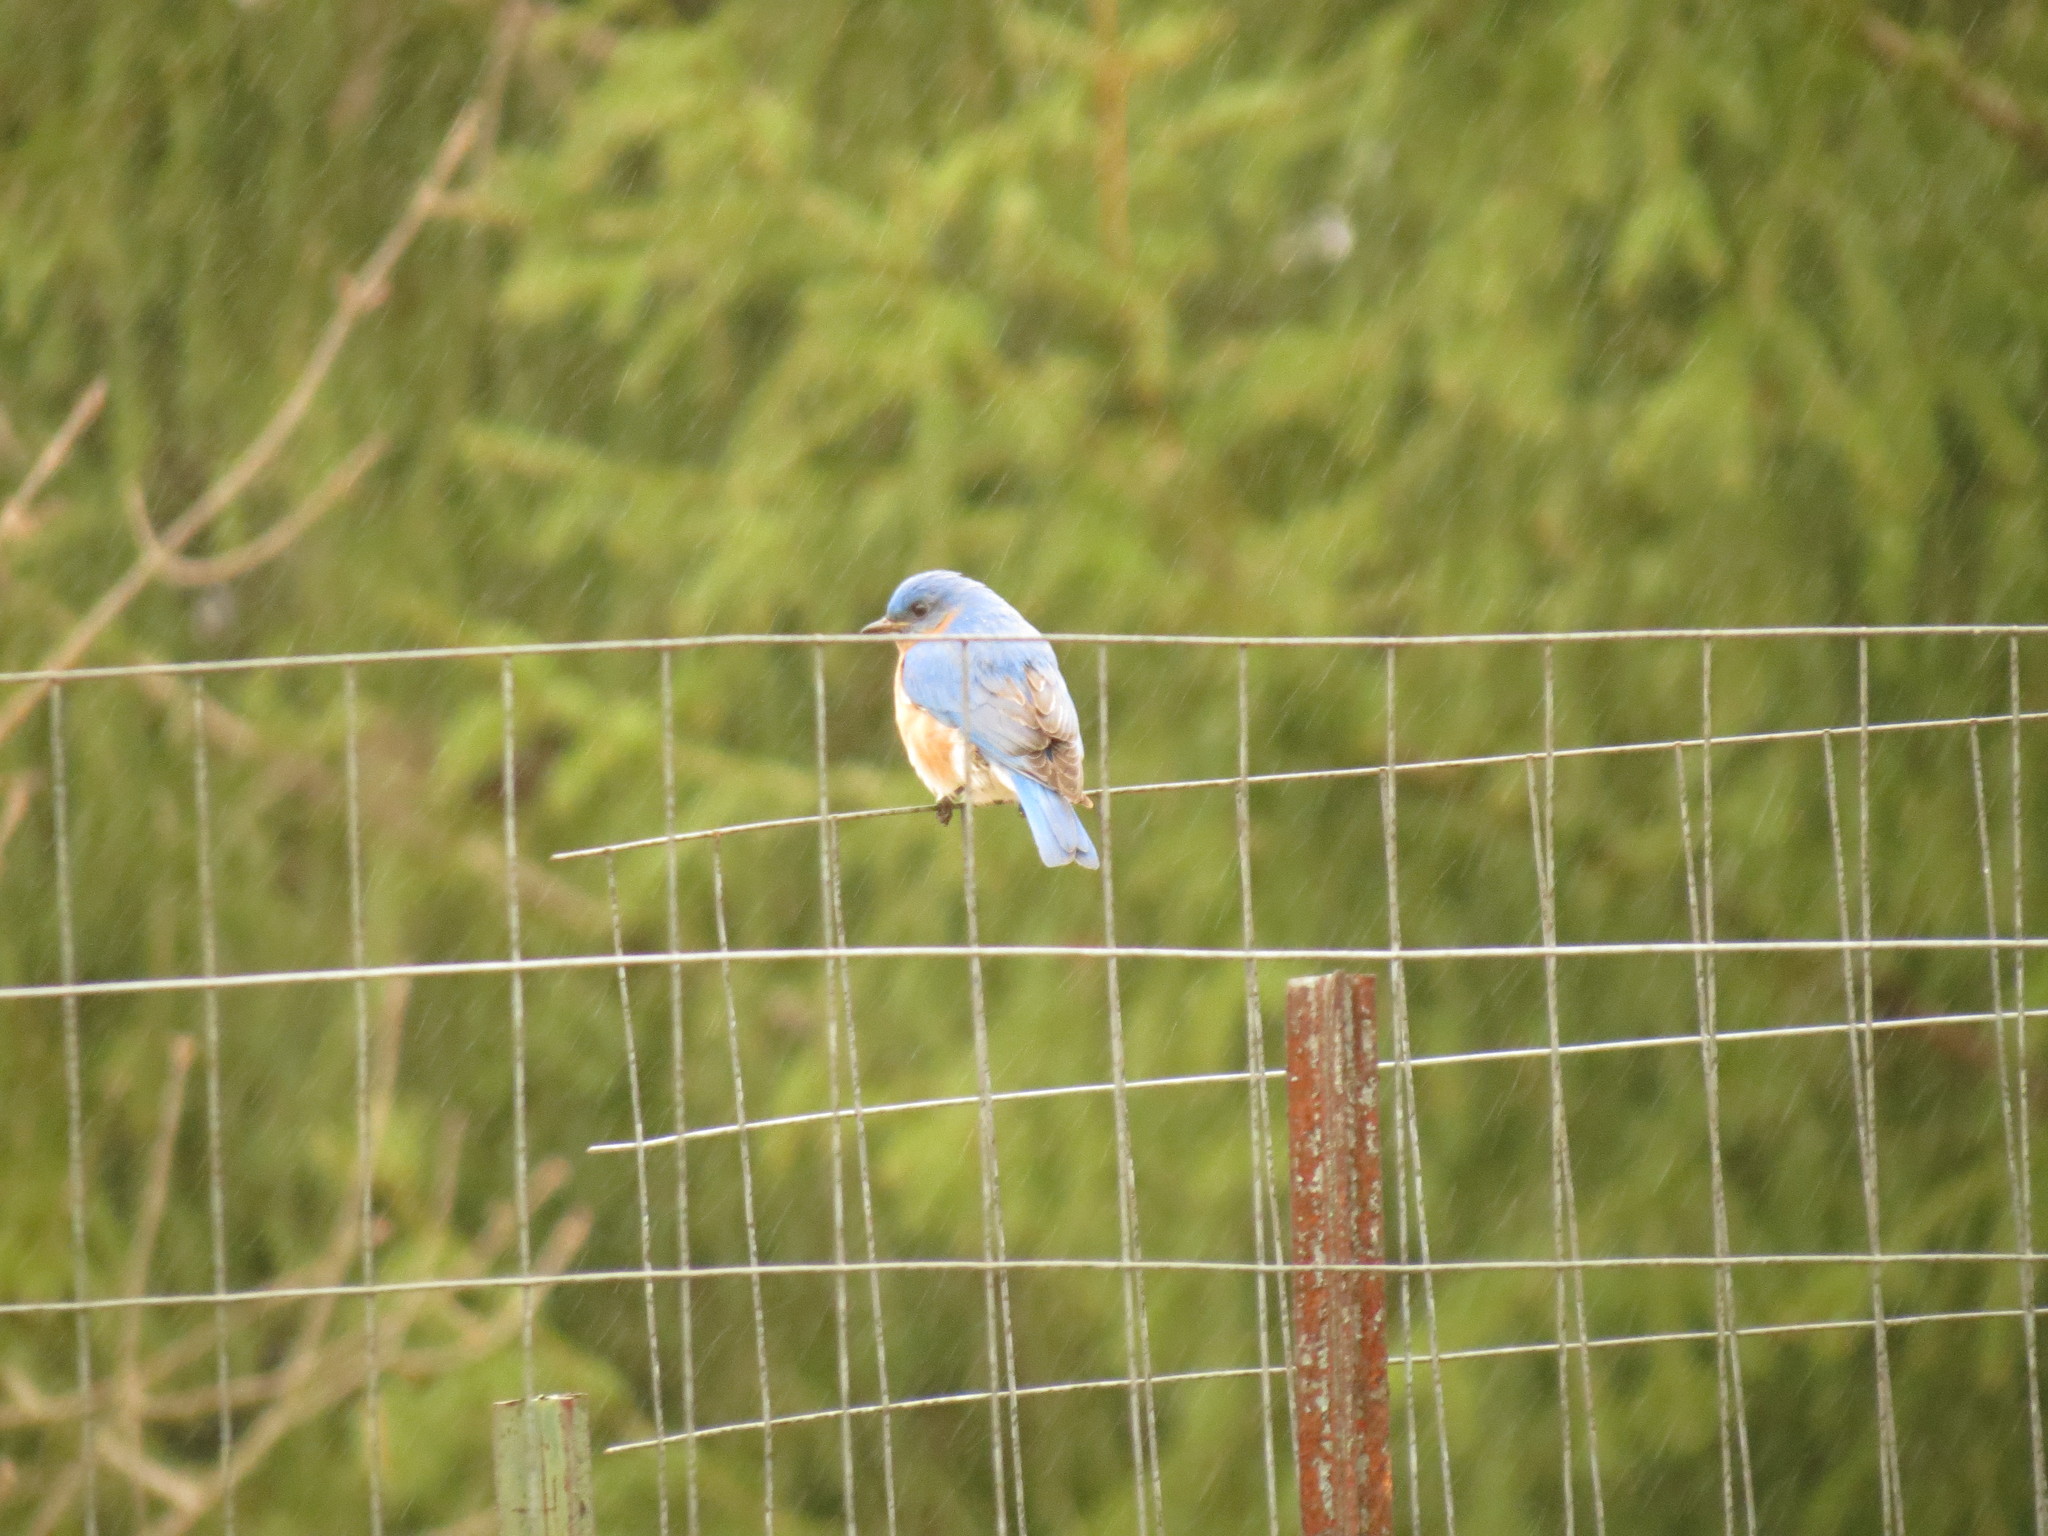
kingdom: Animalia
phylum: Chordata
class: Aves
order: Passeriformes
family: Turdidae
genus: Sialia
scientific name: Sialia sialis
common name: Eastern bluebird
